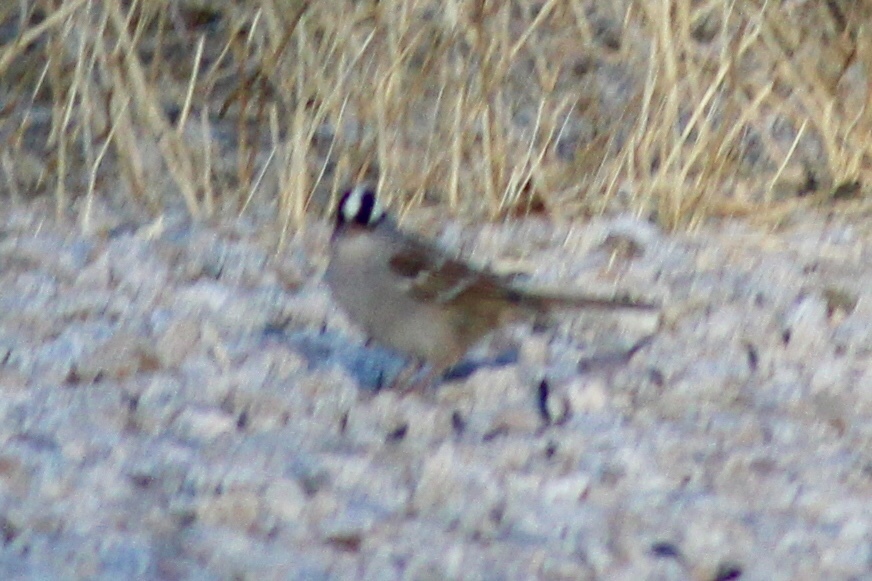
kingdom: Animalia
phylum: Chordata
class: Aves
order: Passeriformes
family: Passerellidae
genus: Zonotrichia
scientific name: Zonotrichia leucophrys
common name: White-crowned sparrow
